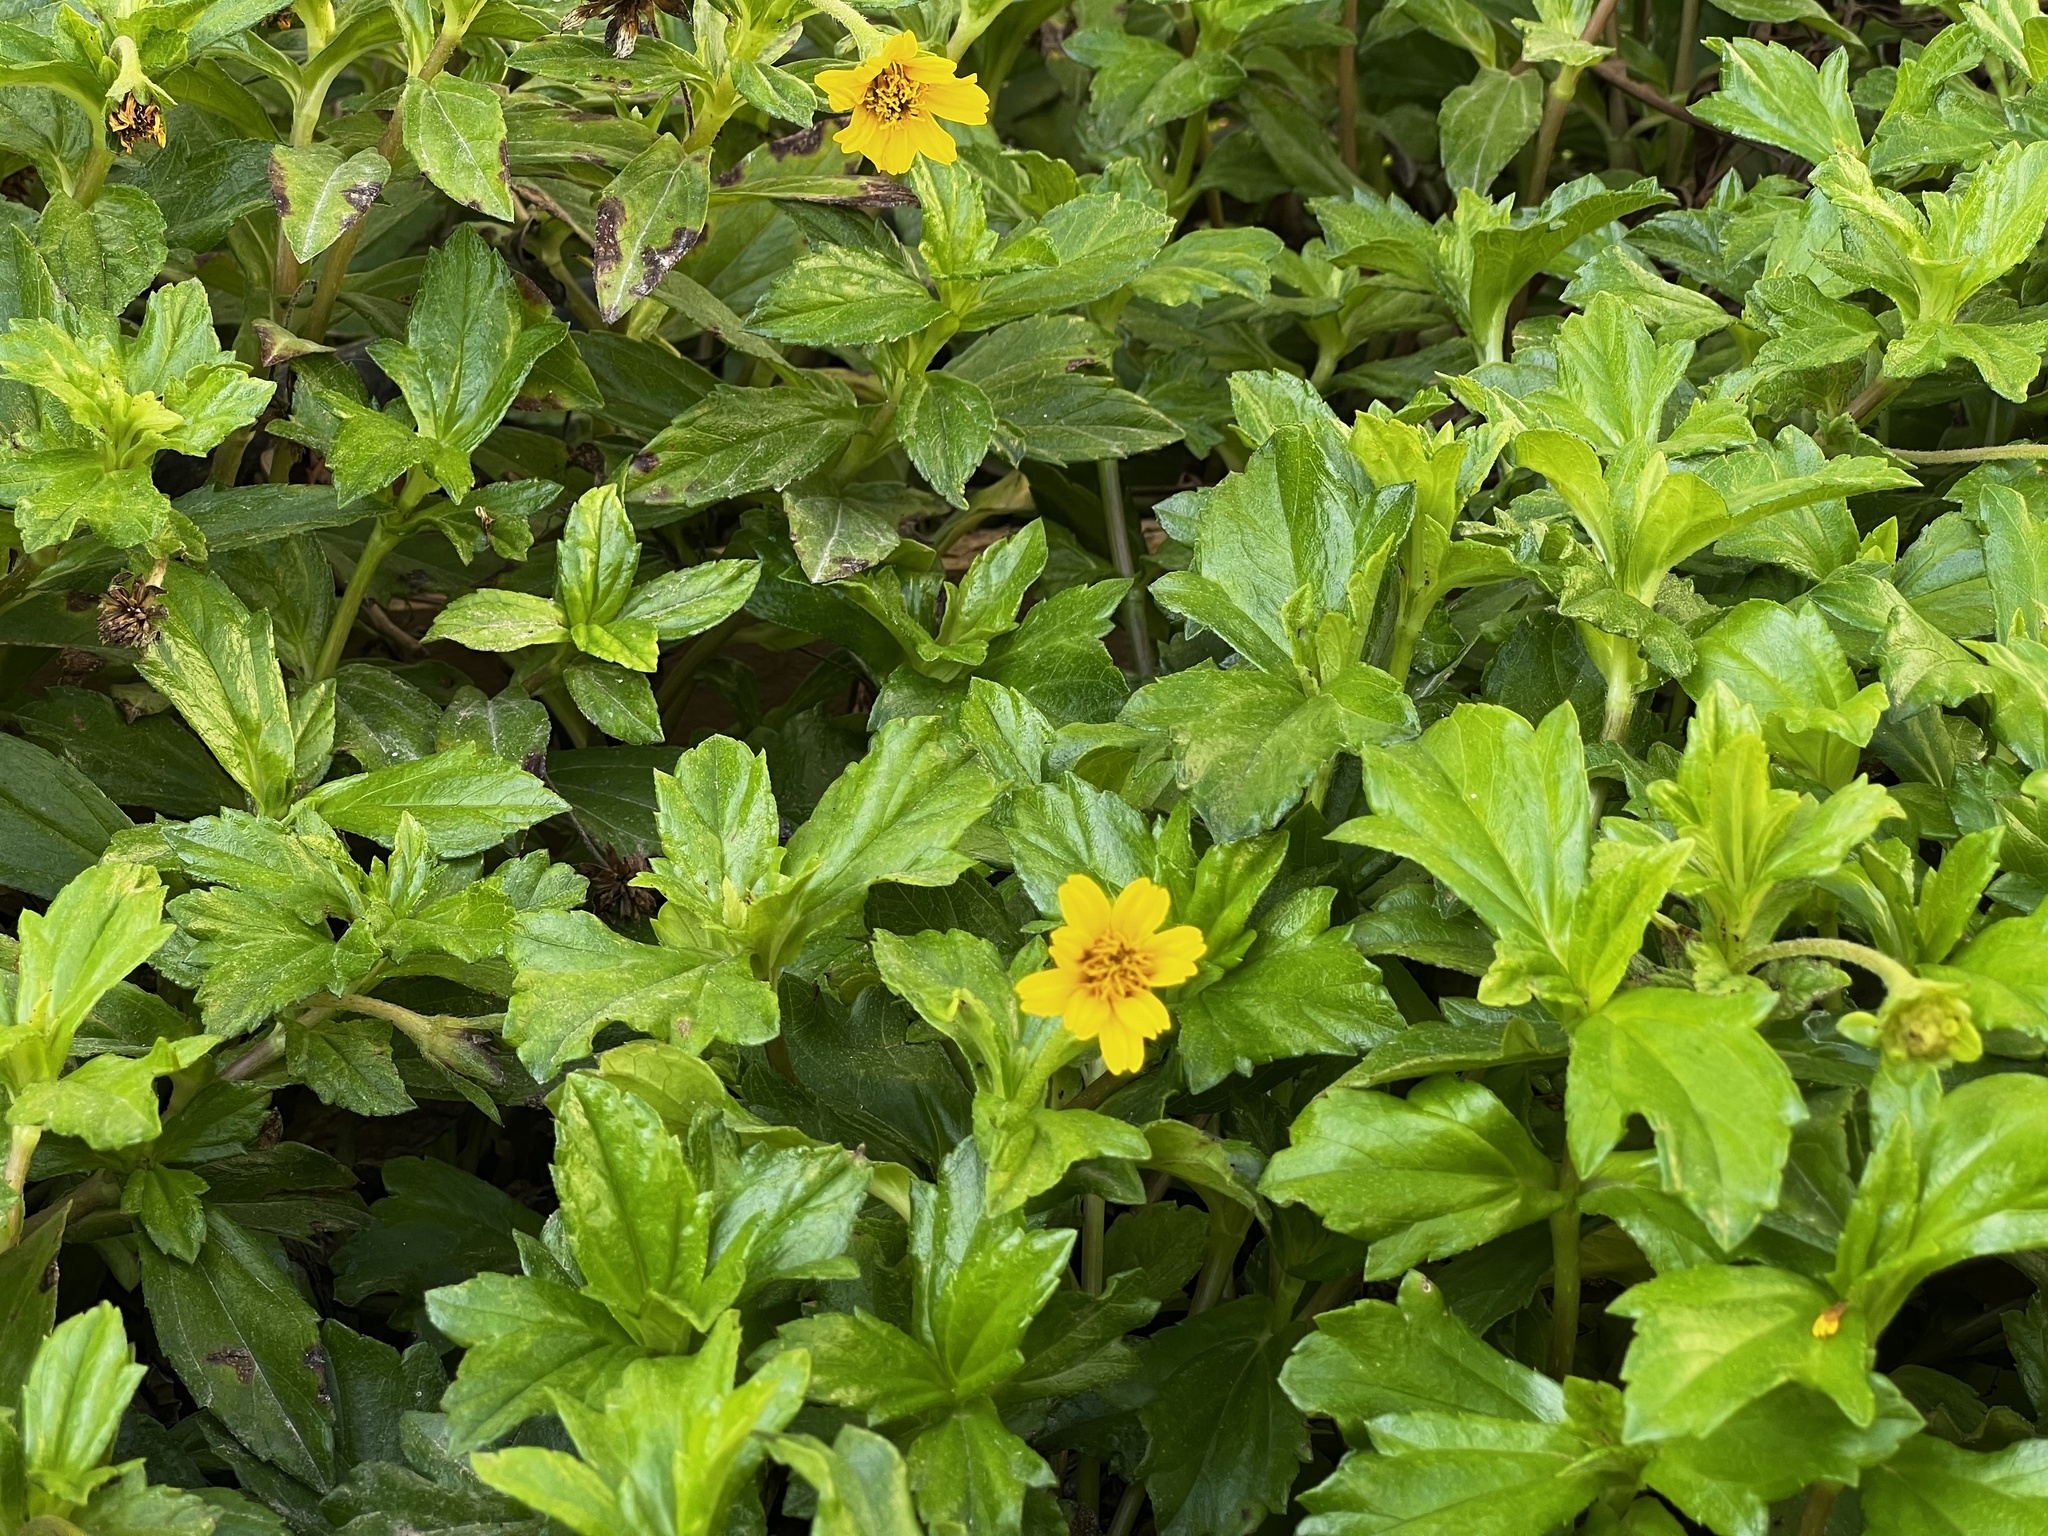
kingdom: Plantae
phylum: Tracheophyta
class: Magnoliopsida
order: Asterales
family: Asteraceae
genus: Sphagneticola
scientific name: Sphagneticola trilobata
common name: Bay biscayne creeping-oxeye
